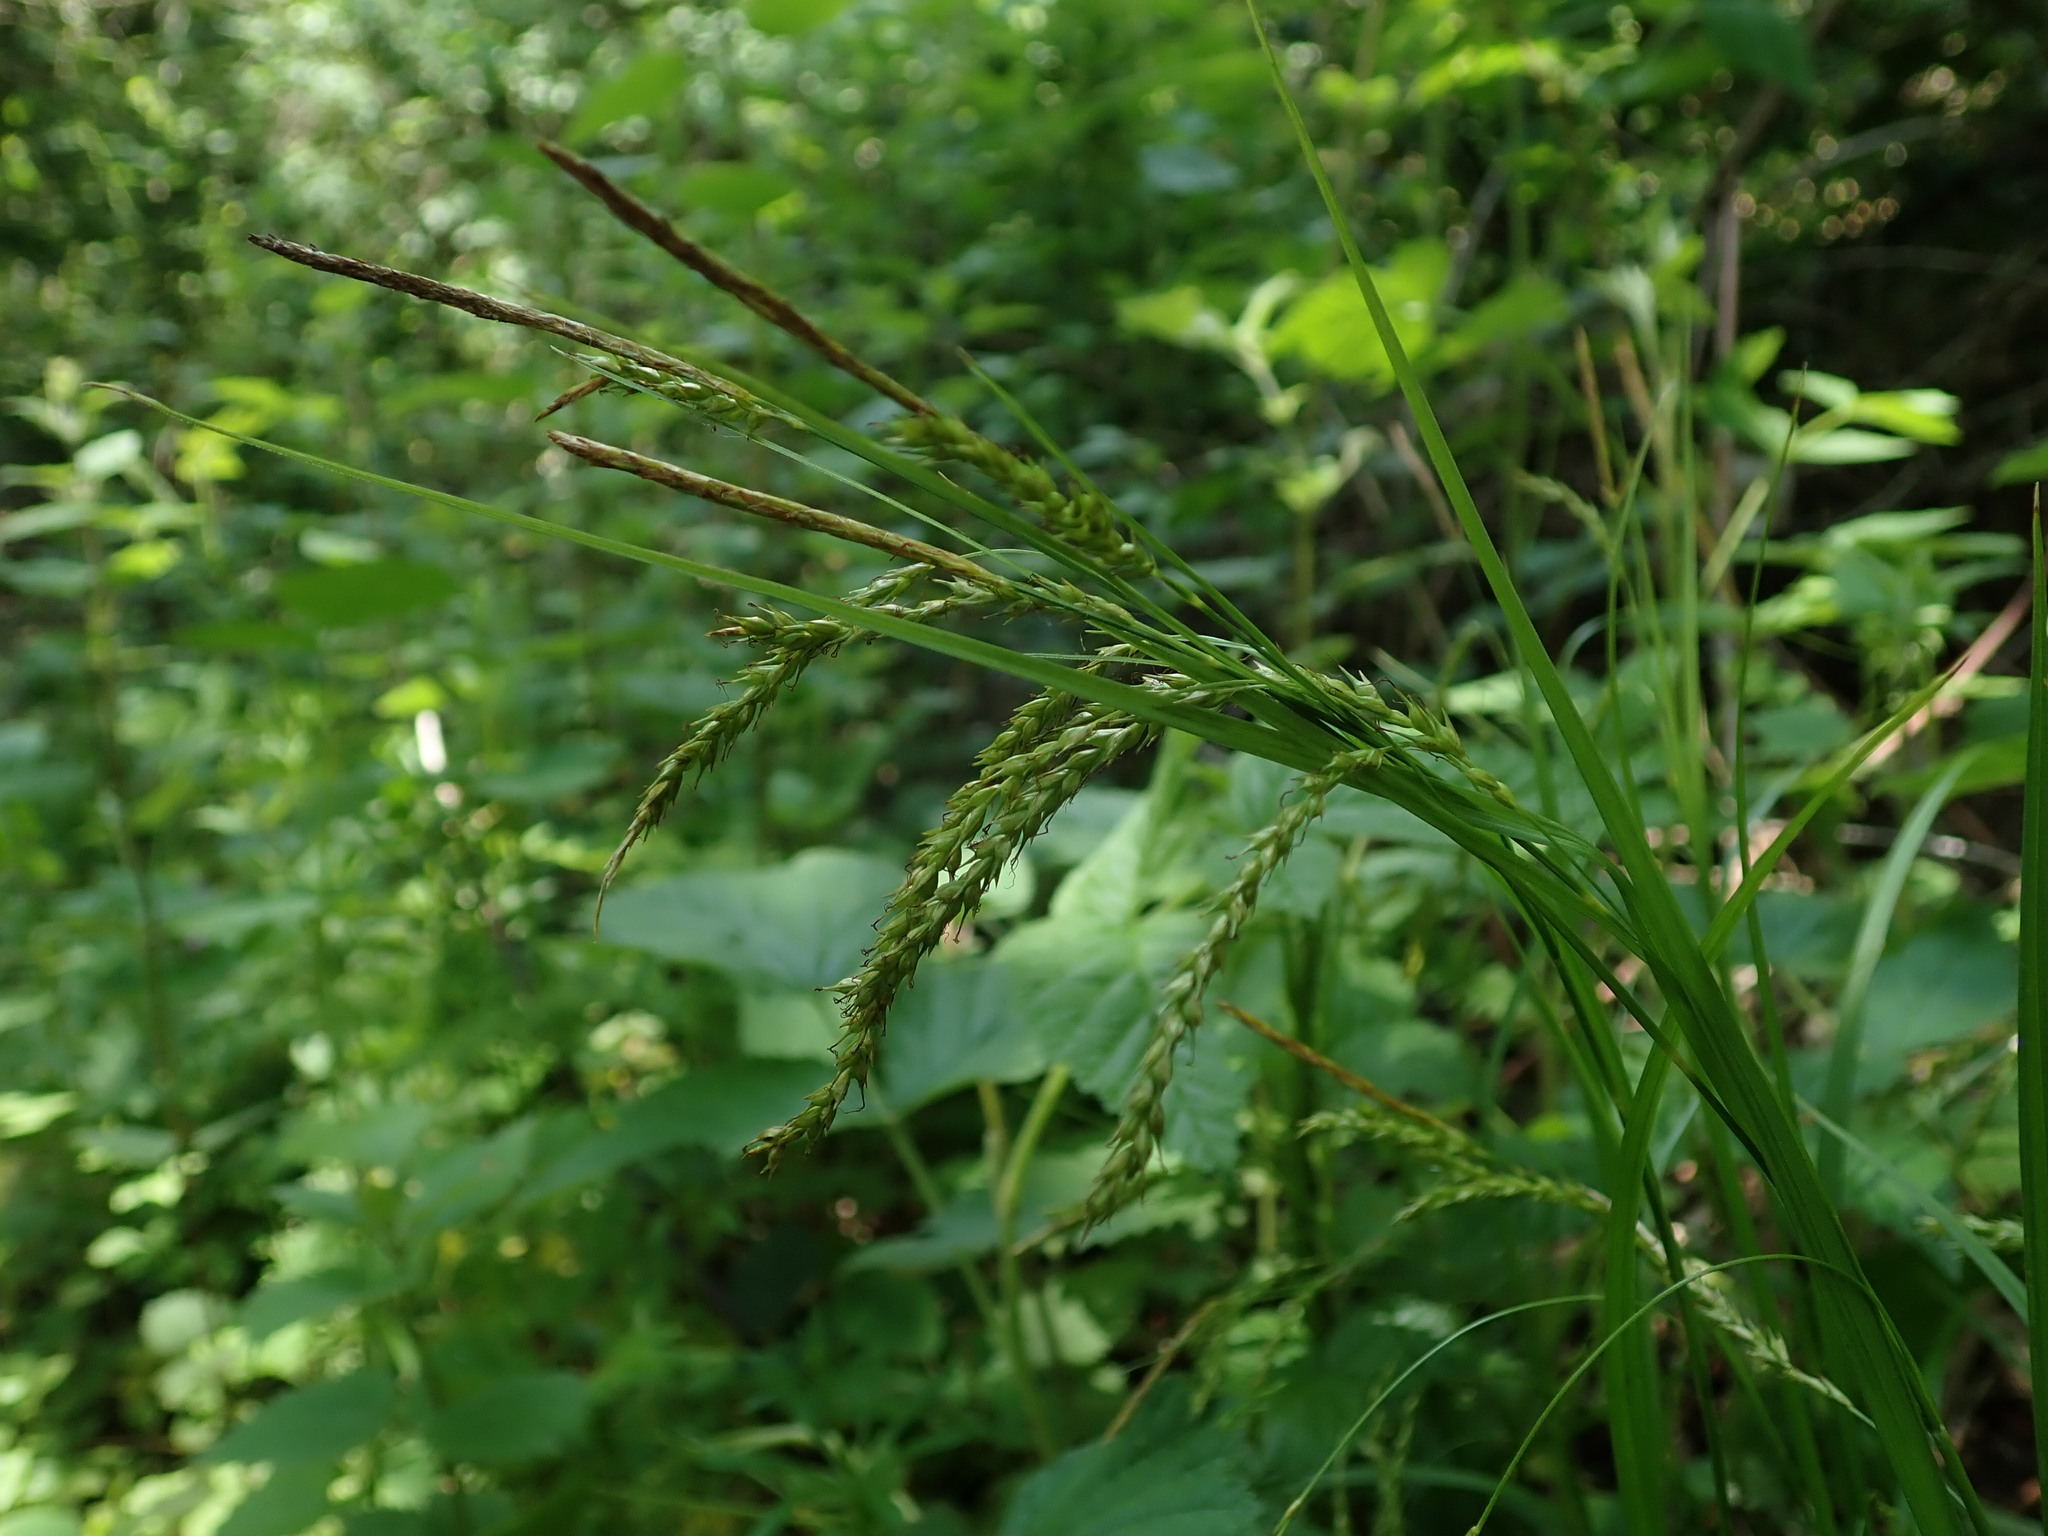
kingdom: Plantae
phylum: Tracheophyta
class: Liliopsida
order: Poales
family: Cyperaceae
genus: Carex
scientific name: Carex sylvatica
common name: Wood-sedge
